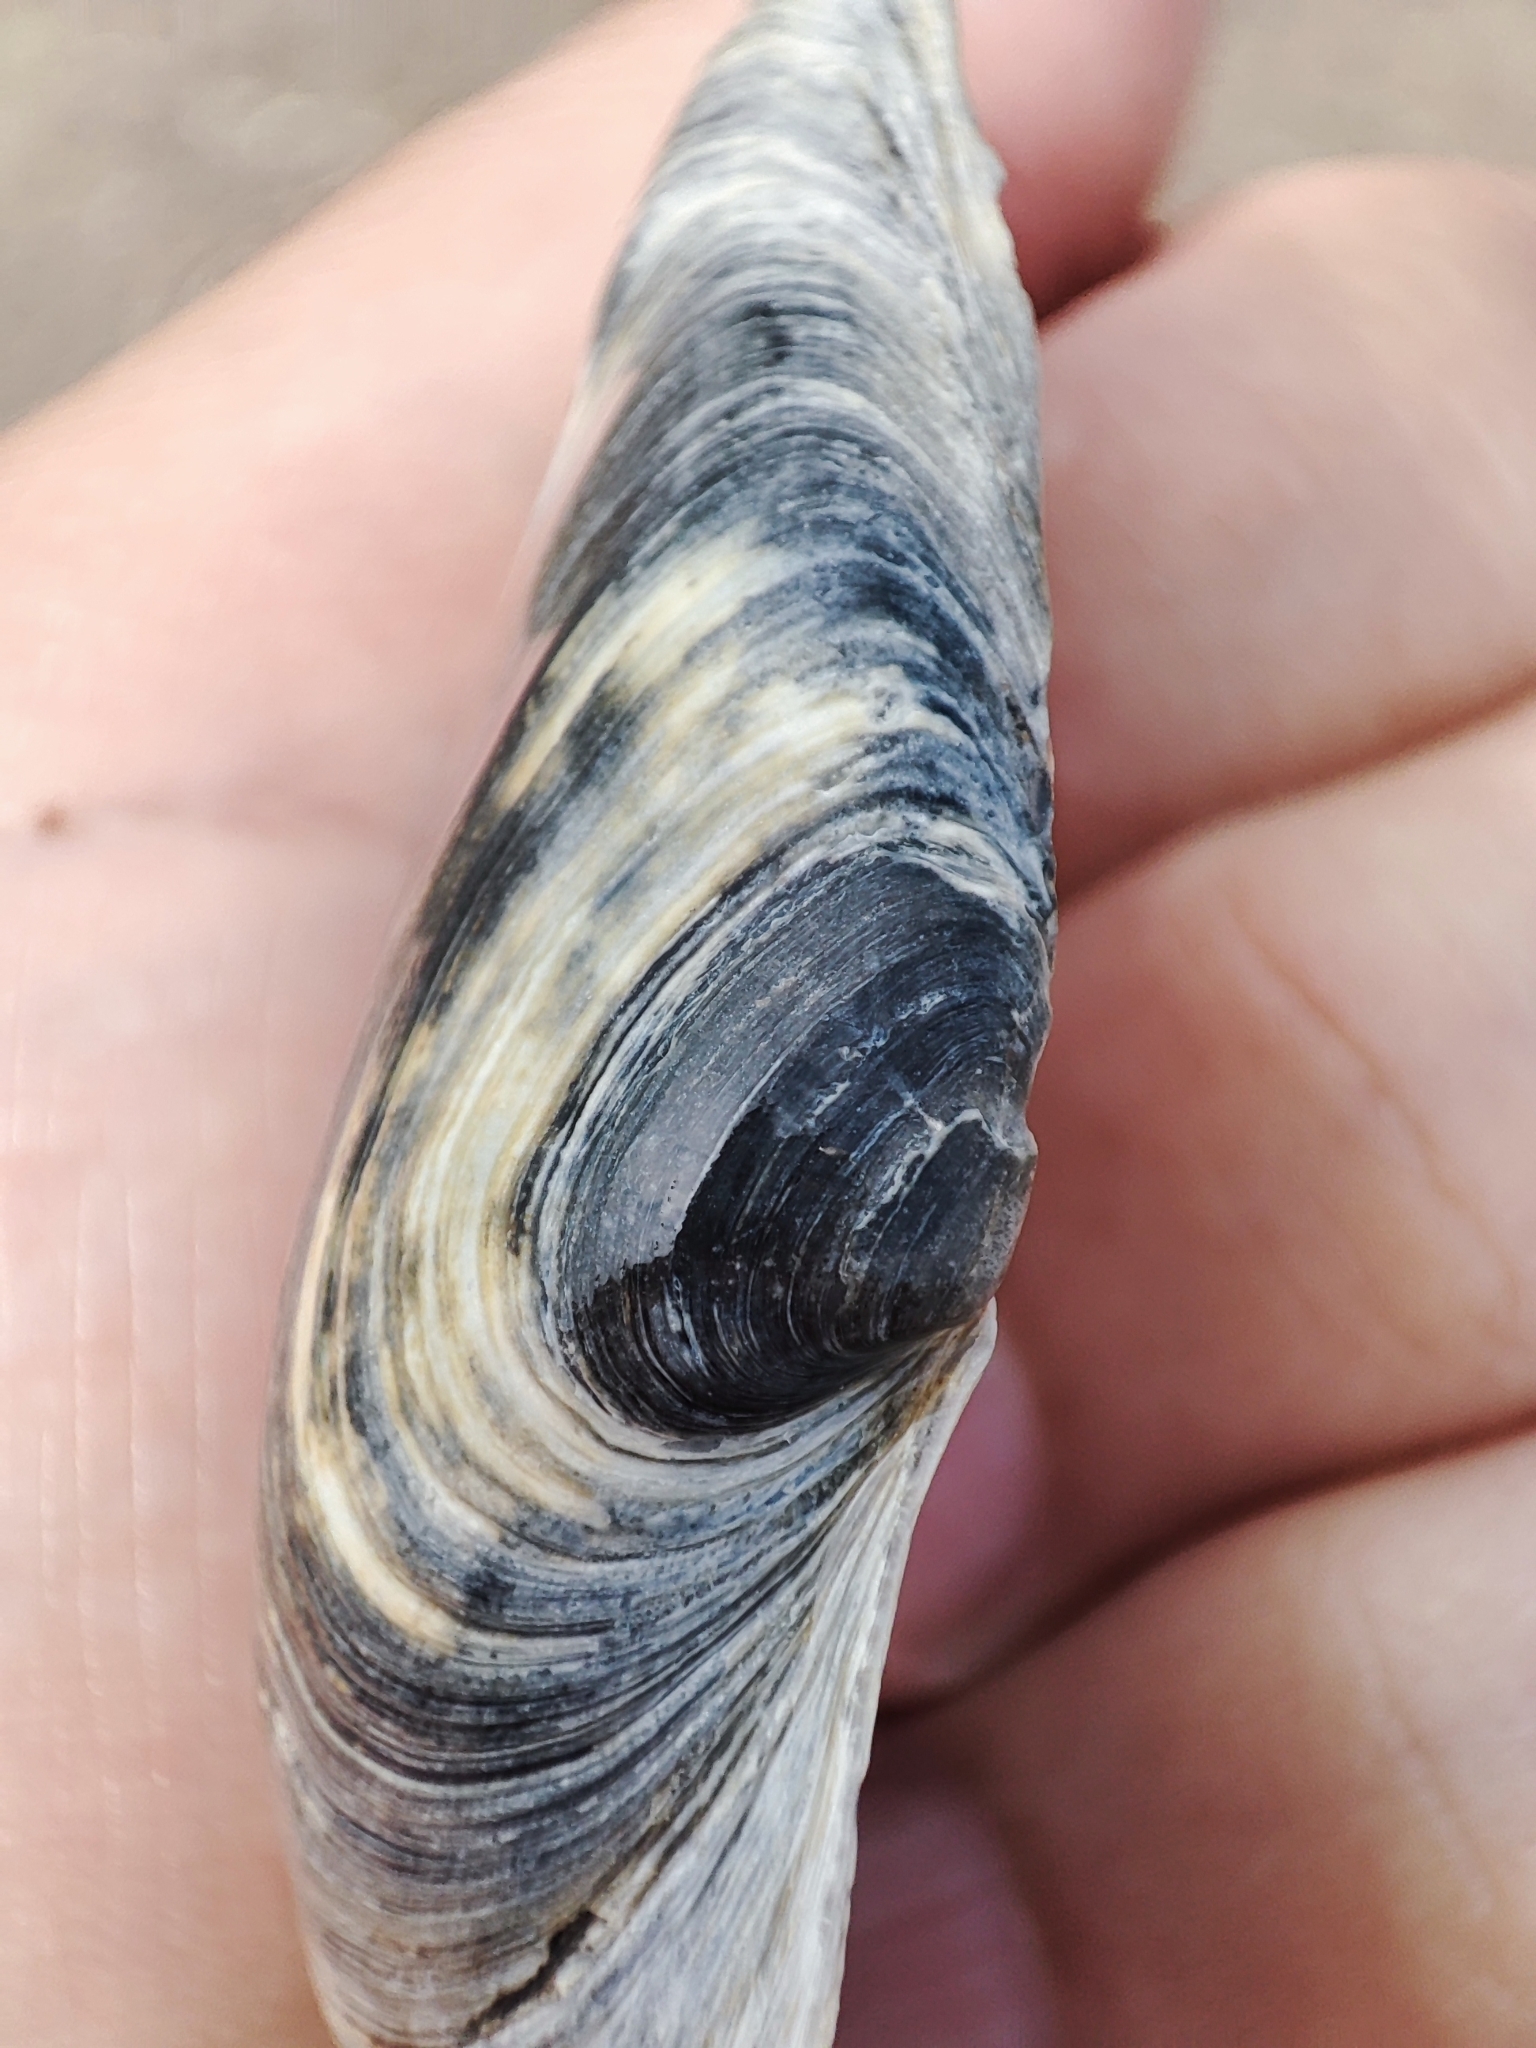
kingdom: Animalia
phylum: Mollusca
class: Bivalvia
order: Myida
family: Myidae
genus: Mya
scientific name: Mya arenaria
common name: Soft-shelled clam
